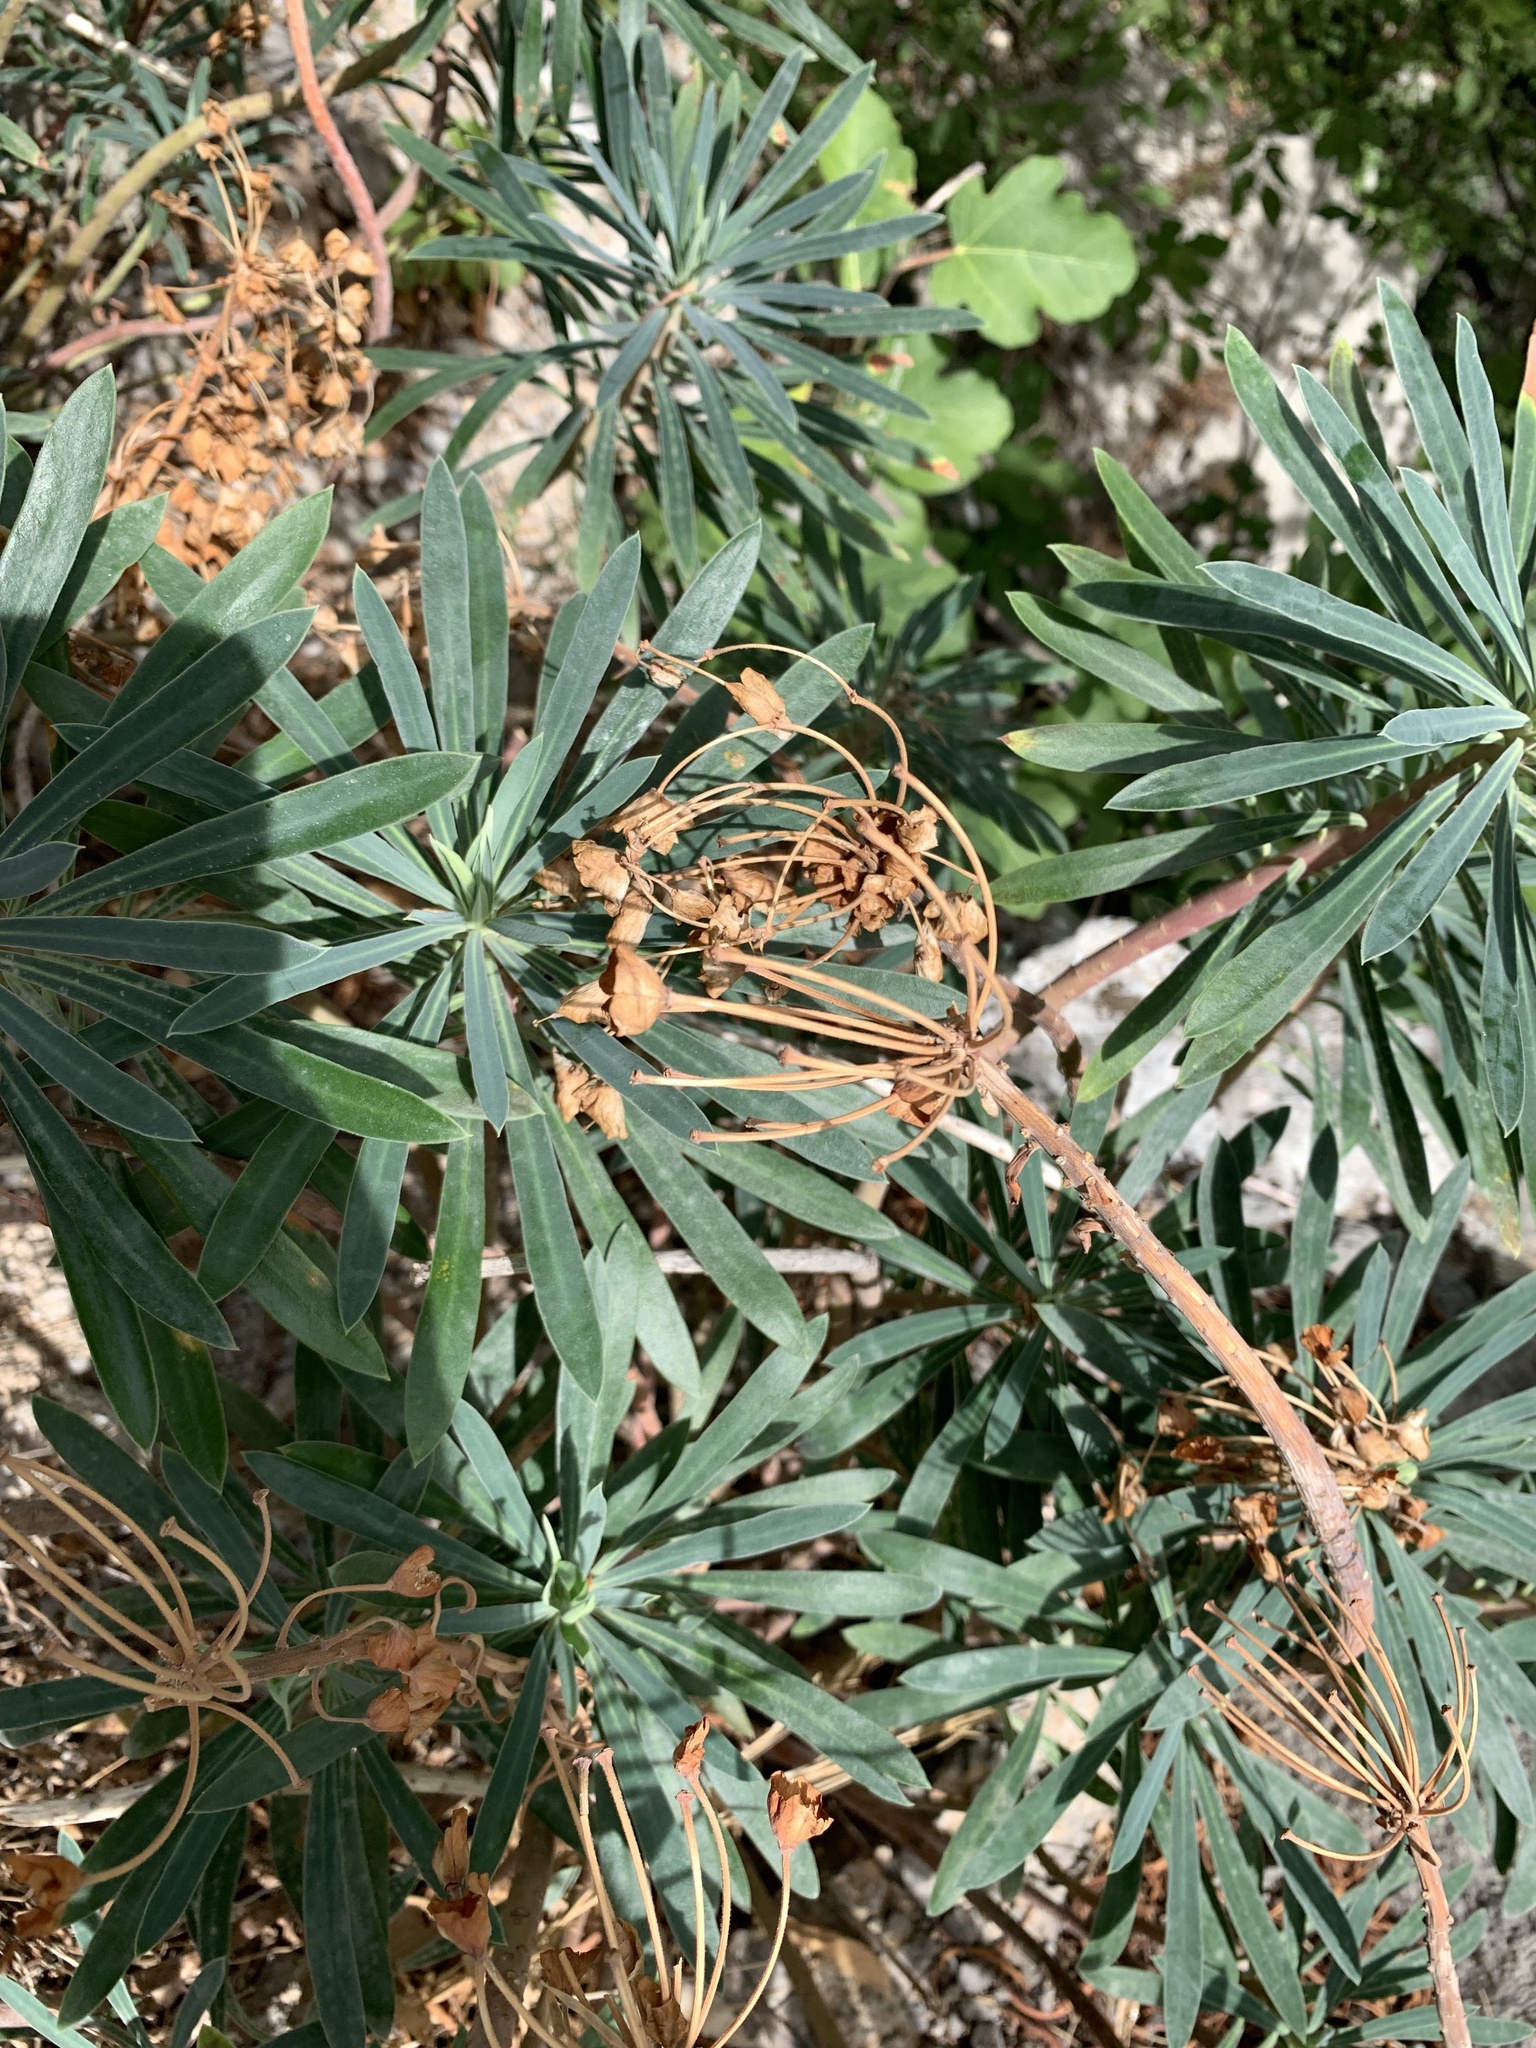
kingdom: Plantae
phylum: Tracheophyta
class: Magnoliopsida
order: Malpighiales
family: Euphorbiaceae
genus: Euphorbia
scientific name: Euphorbia characias
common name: Mediterranean spurge
